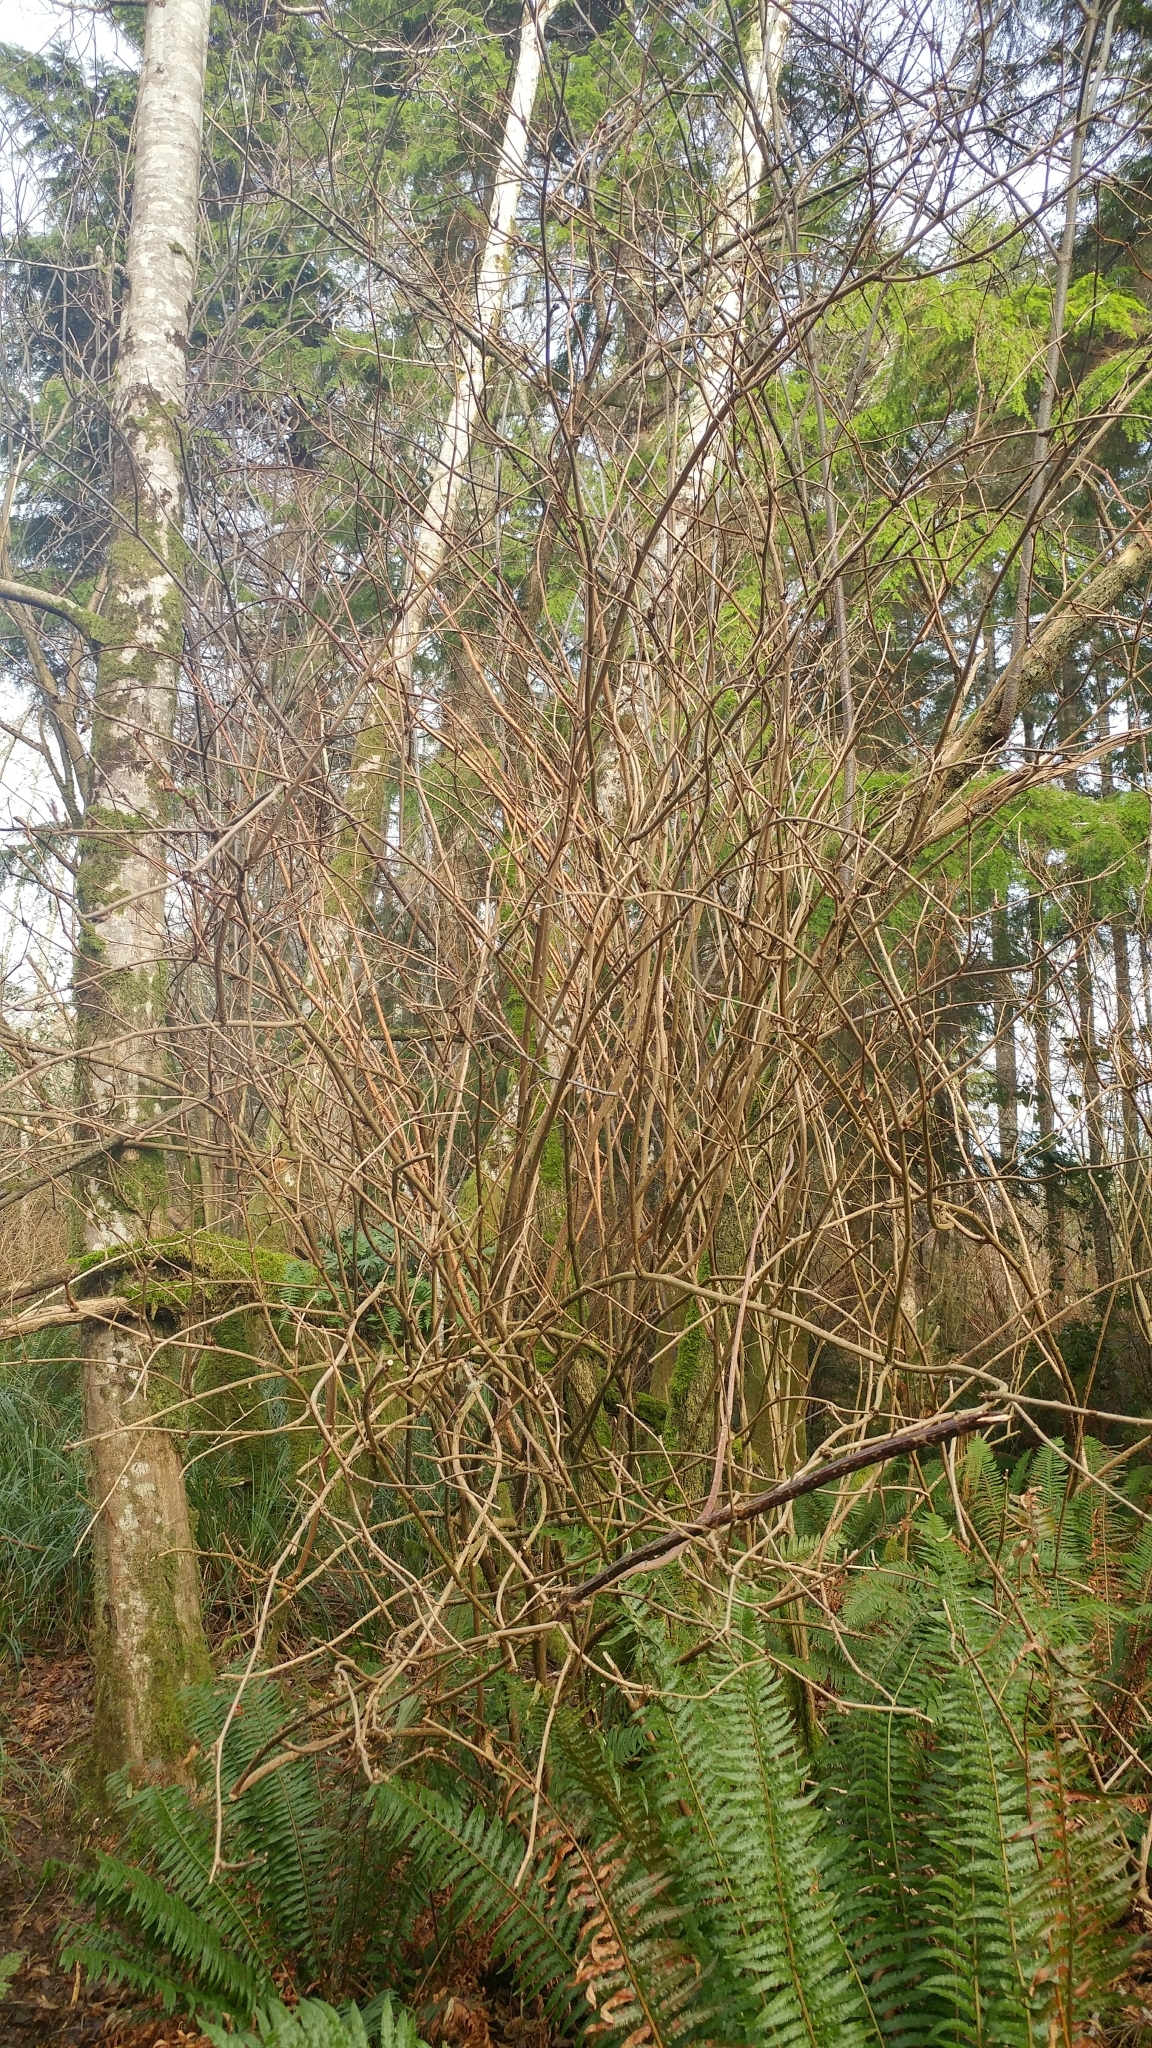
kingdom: Plantae
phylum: Tracheophyta
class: Magnoliopsida
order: Rosales
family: Rosaceae
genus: Rubus
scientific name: Rubus spectabilis
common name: Salmonberry
